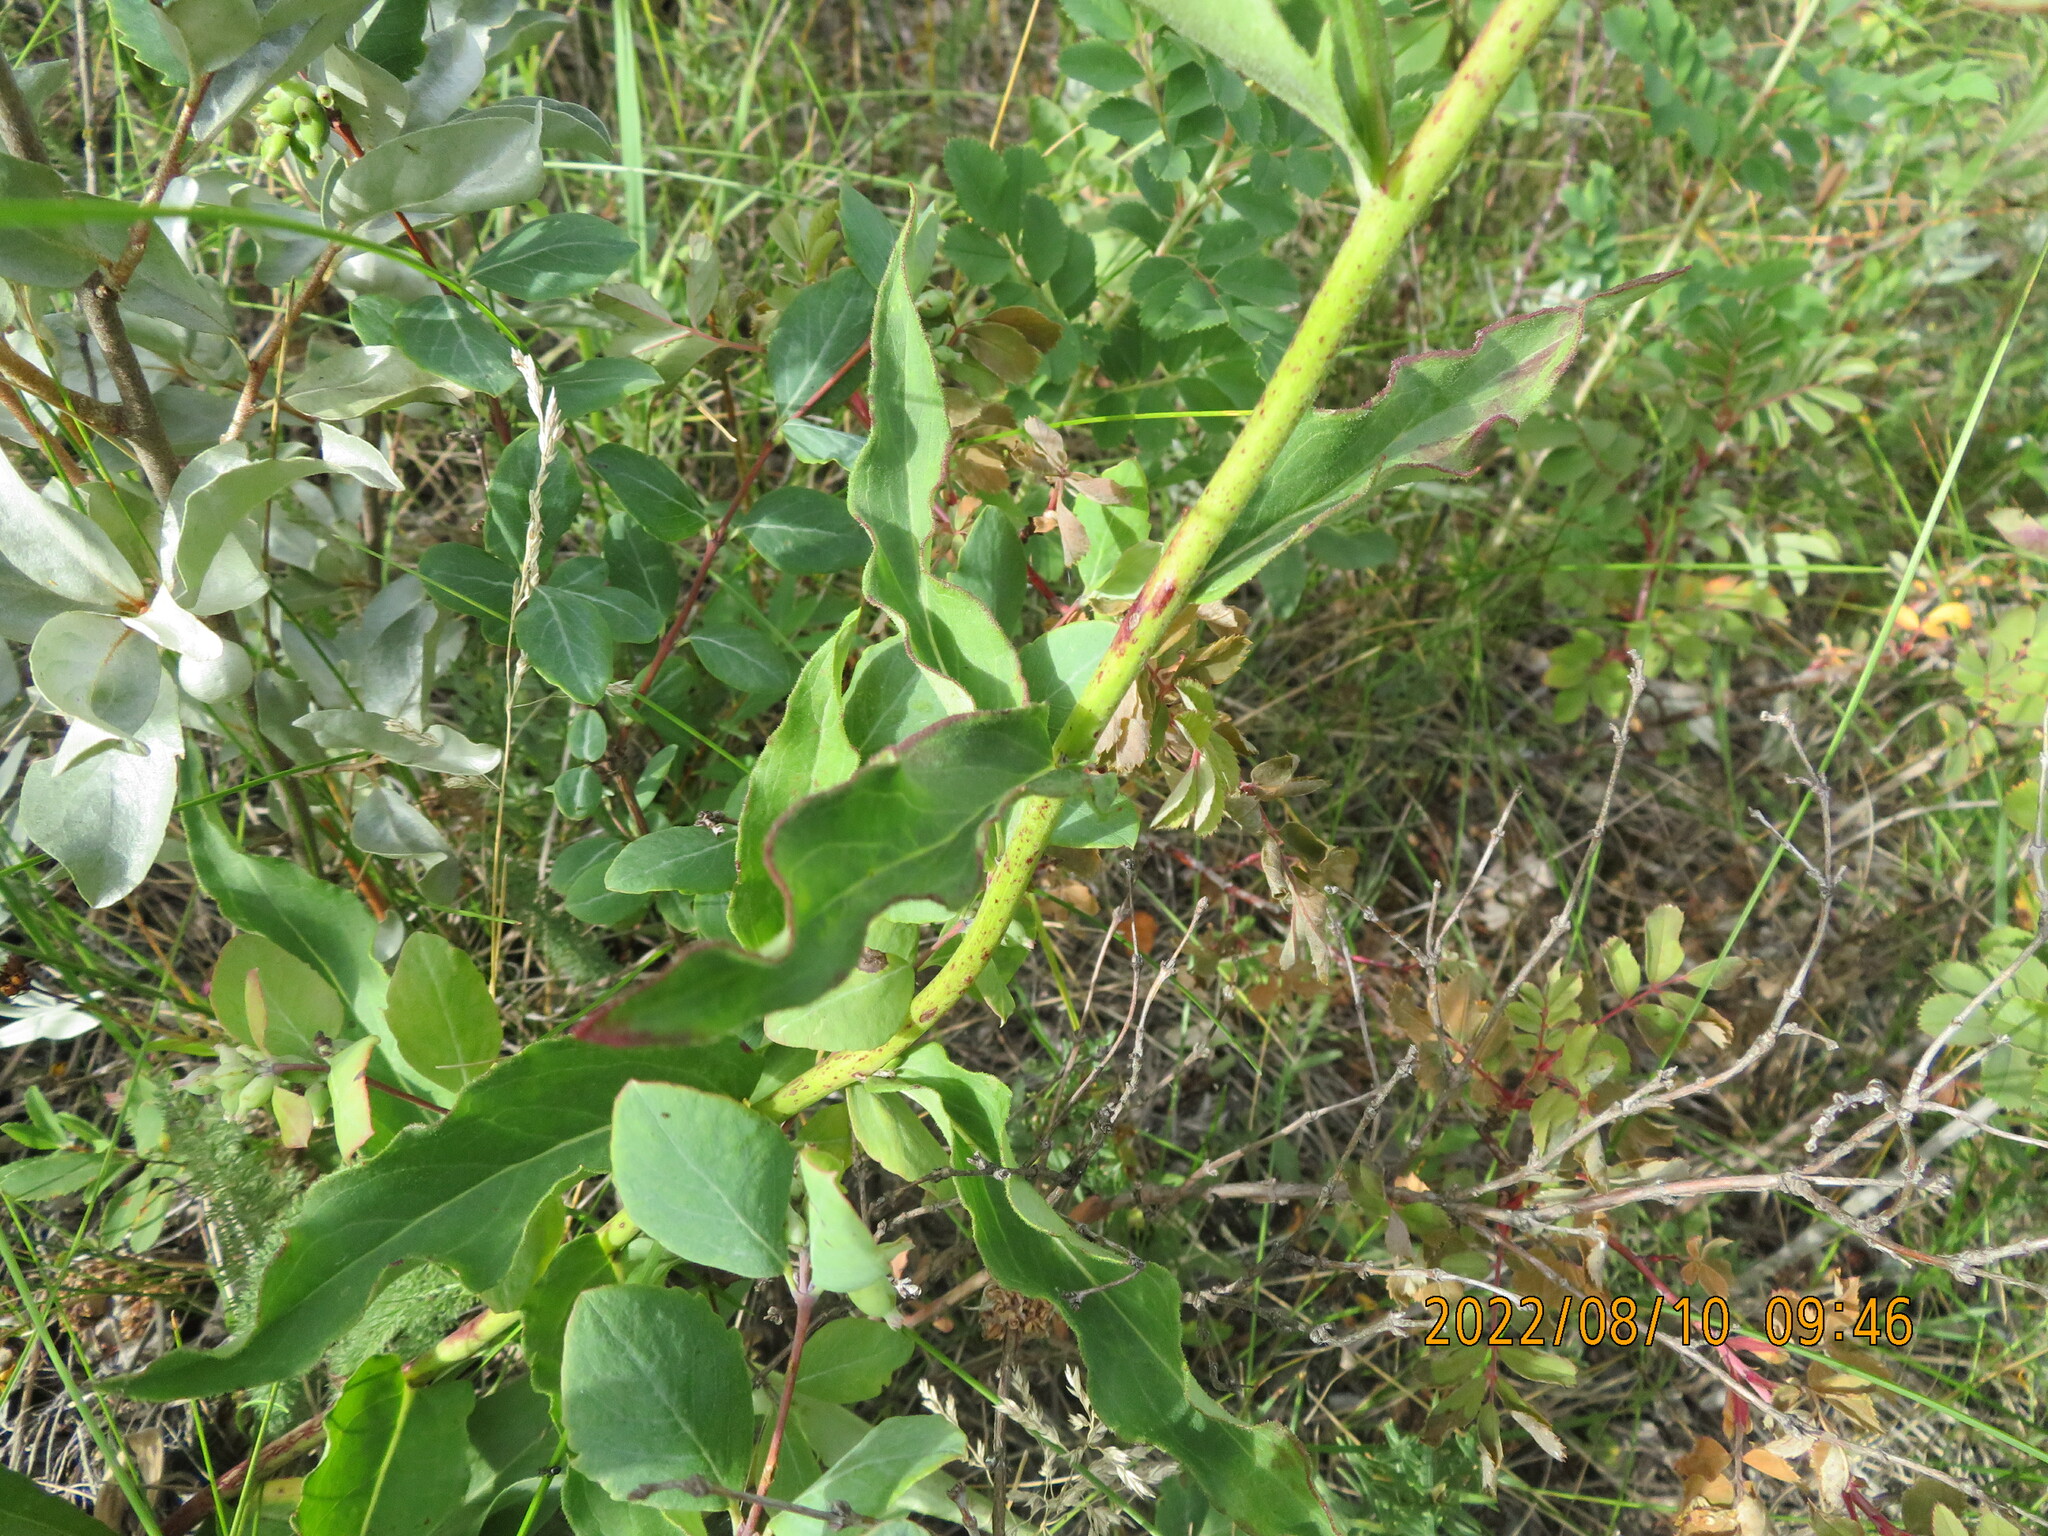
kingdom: Plantae
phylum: Tracheophyta
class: Magnoliopsida
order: Asterales
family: Asteraceae
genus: Hieracium
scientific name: Hieracium umbellatum
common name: Northern hawkweed
